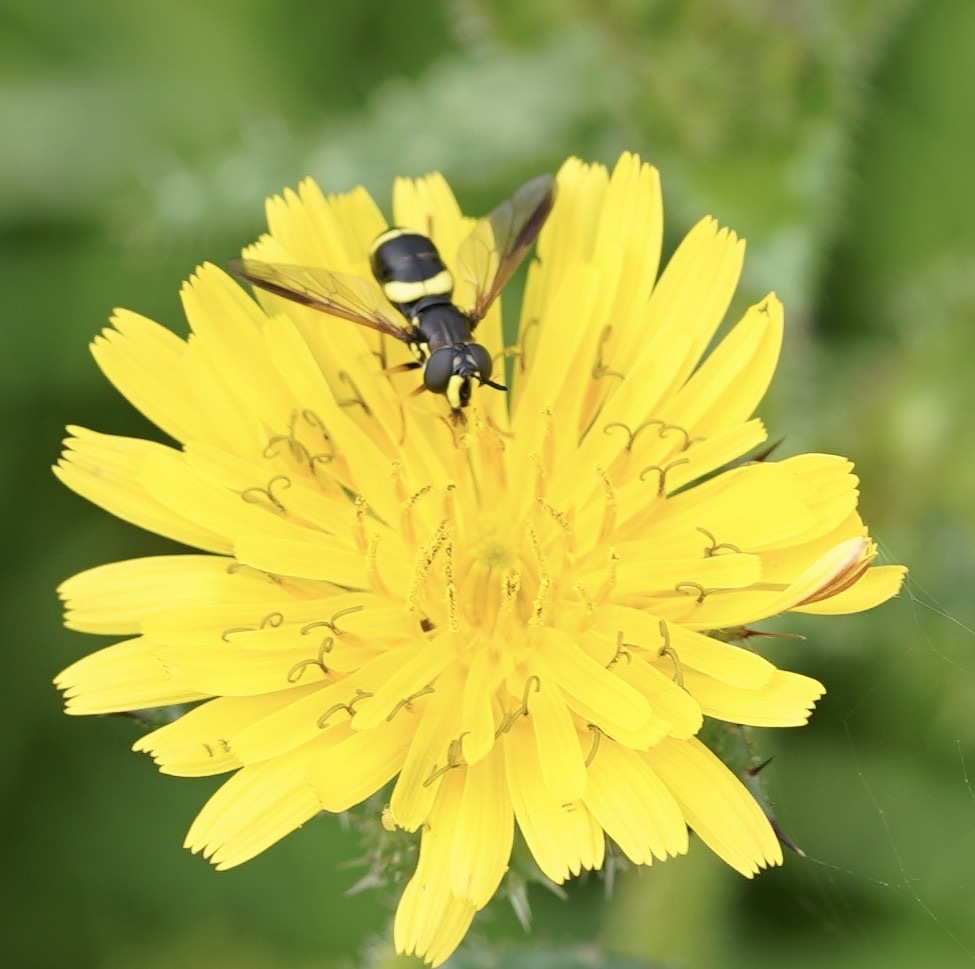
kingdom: Animalia
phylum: Arthropoda
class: Insecta
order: Diptera
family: Syrphidae
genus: Chrysotoxum
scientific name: Chrysotoxum bicincta
